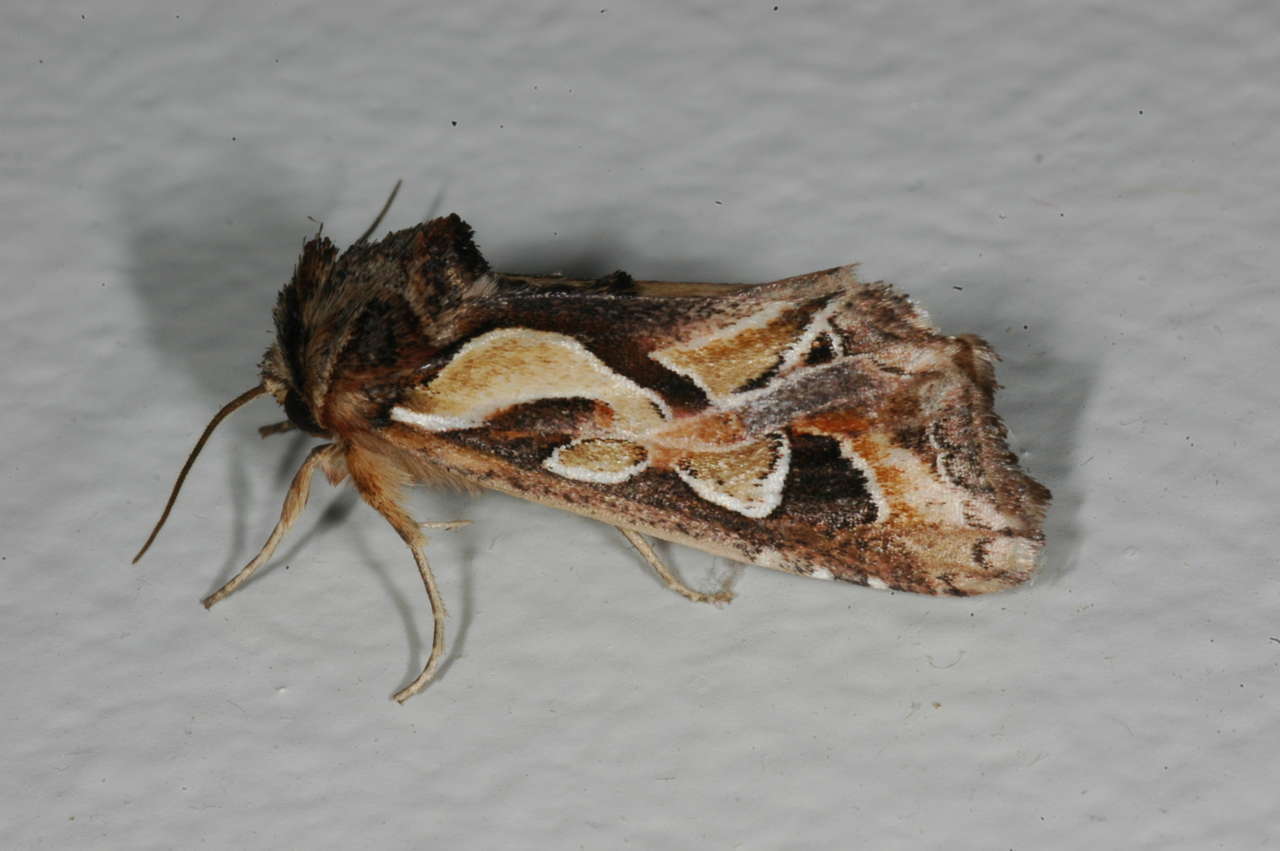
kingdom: Animalia
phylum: Arthropoda
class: Insecta
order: Lepidoptera
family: Noctuidae
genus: Cosmodes
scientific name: Cosmodes elegans
